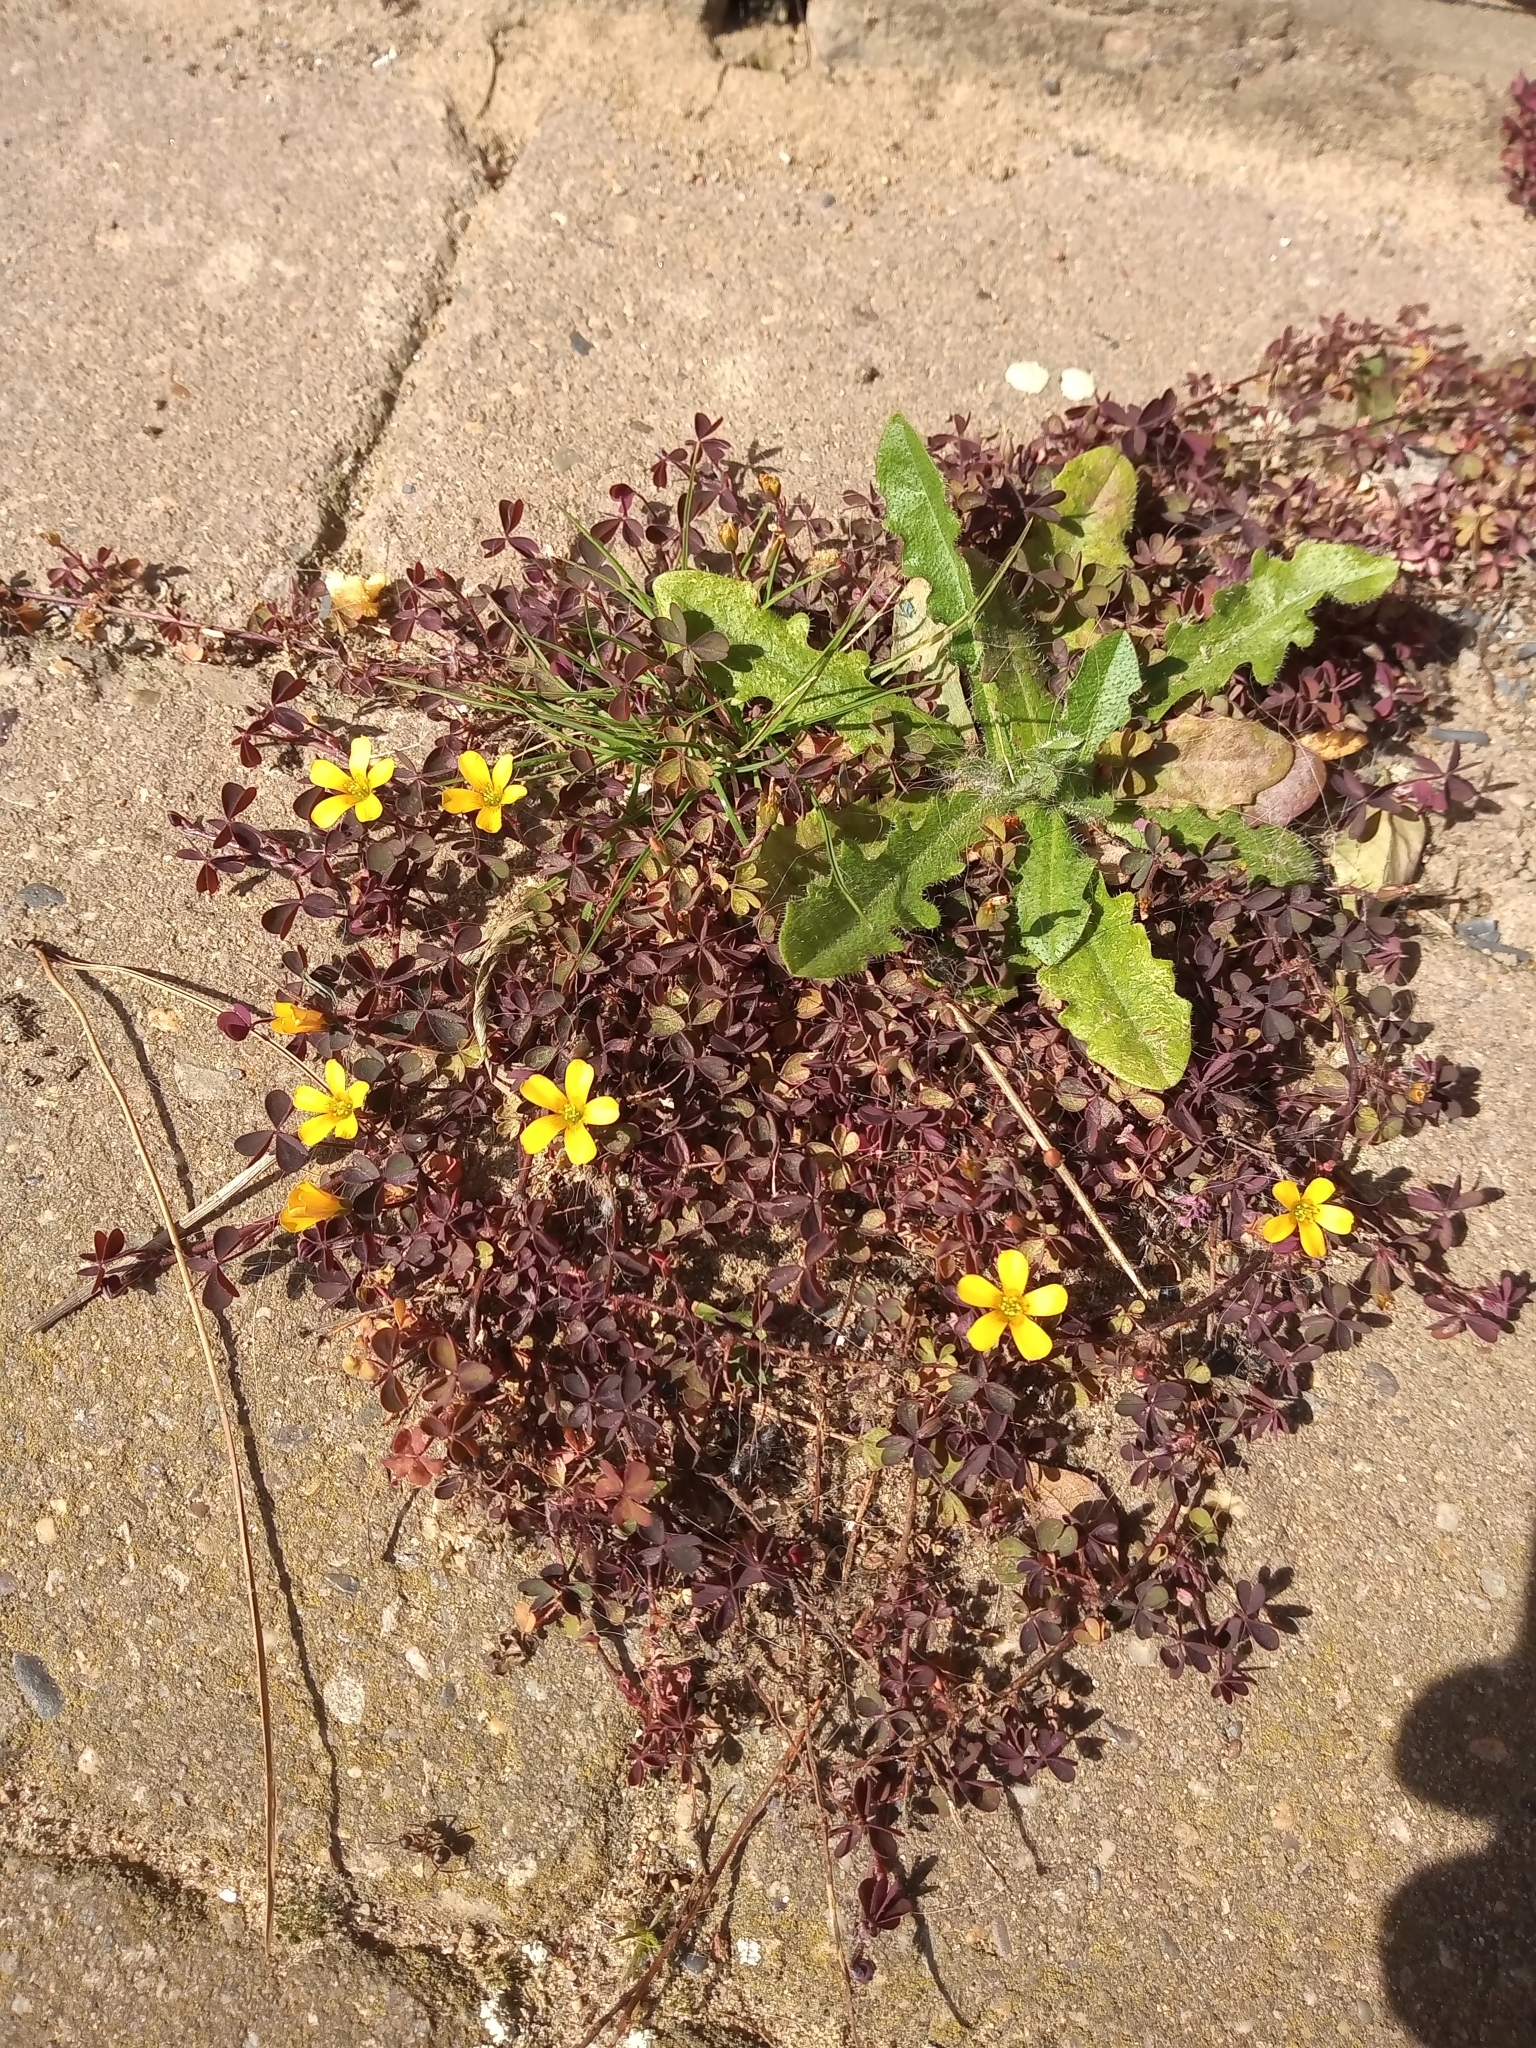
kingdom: Plantae
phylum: Tracheophyta
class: Magnoliopsida
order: Oxalidales
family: Oxalidaceae
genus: Oxalis
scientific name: Oxalis corniculata
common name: Procumbent yellow-sorrel
